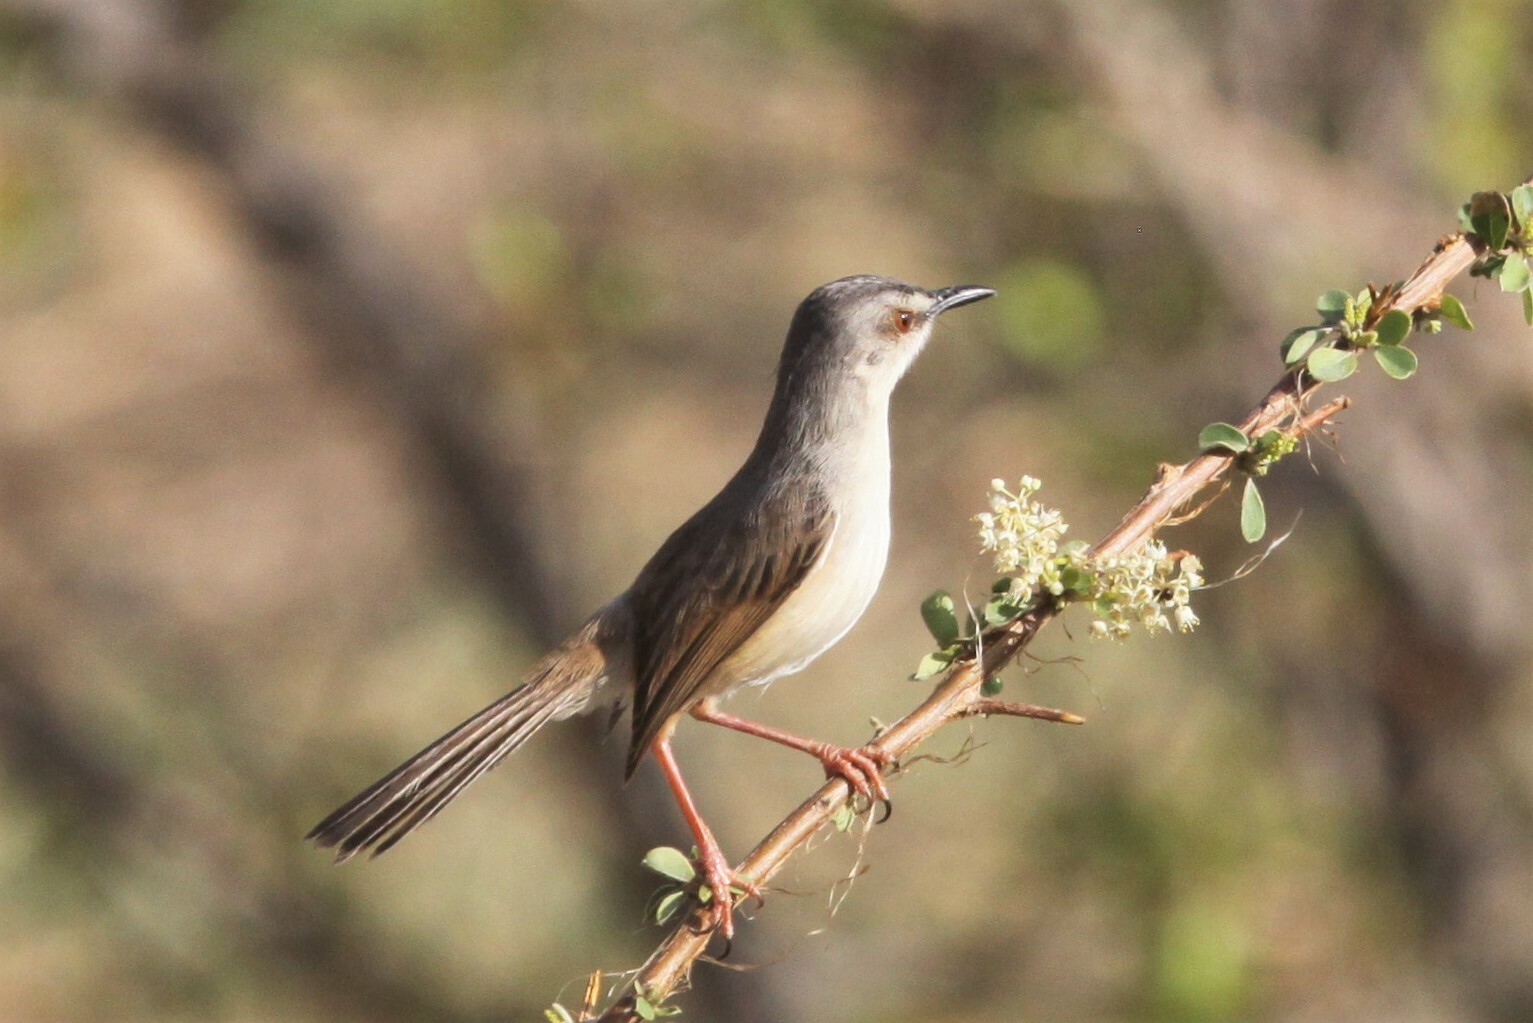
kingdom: Animalia
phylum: Chordata
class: Aves
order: Passeriformes
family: Cisticolidae
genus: Prinia
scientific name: Prinia subflava
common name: Tawny-flanked prinia
